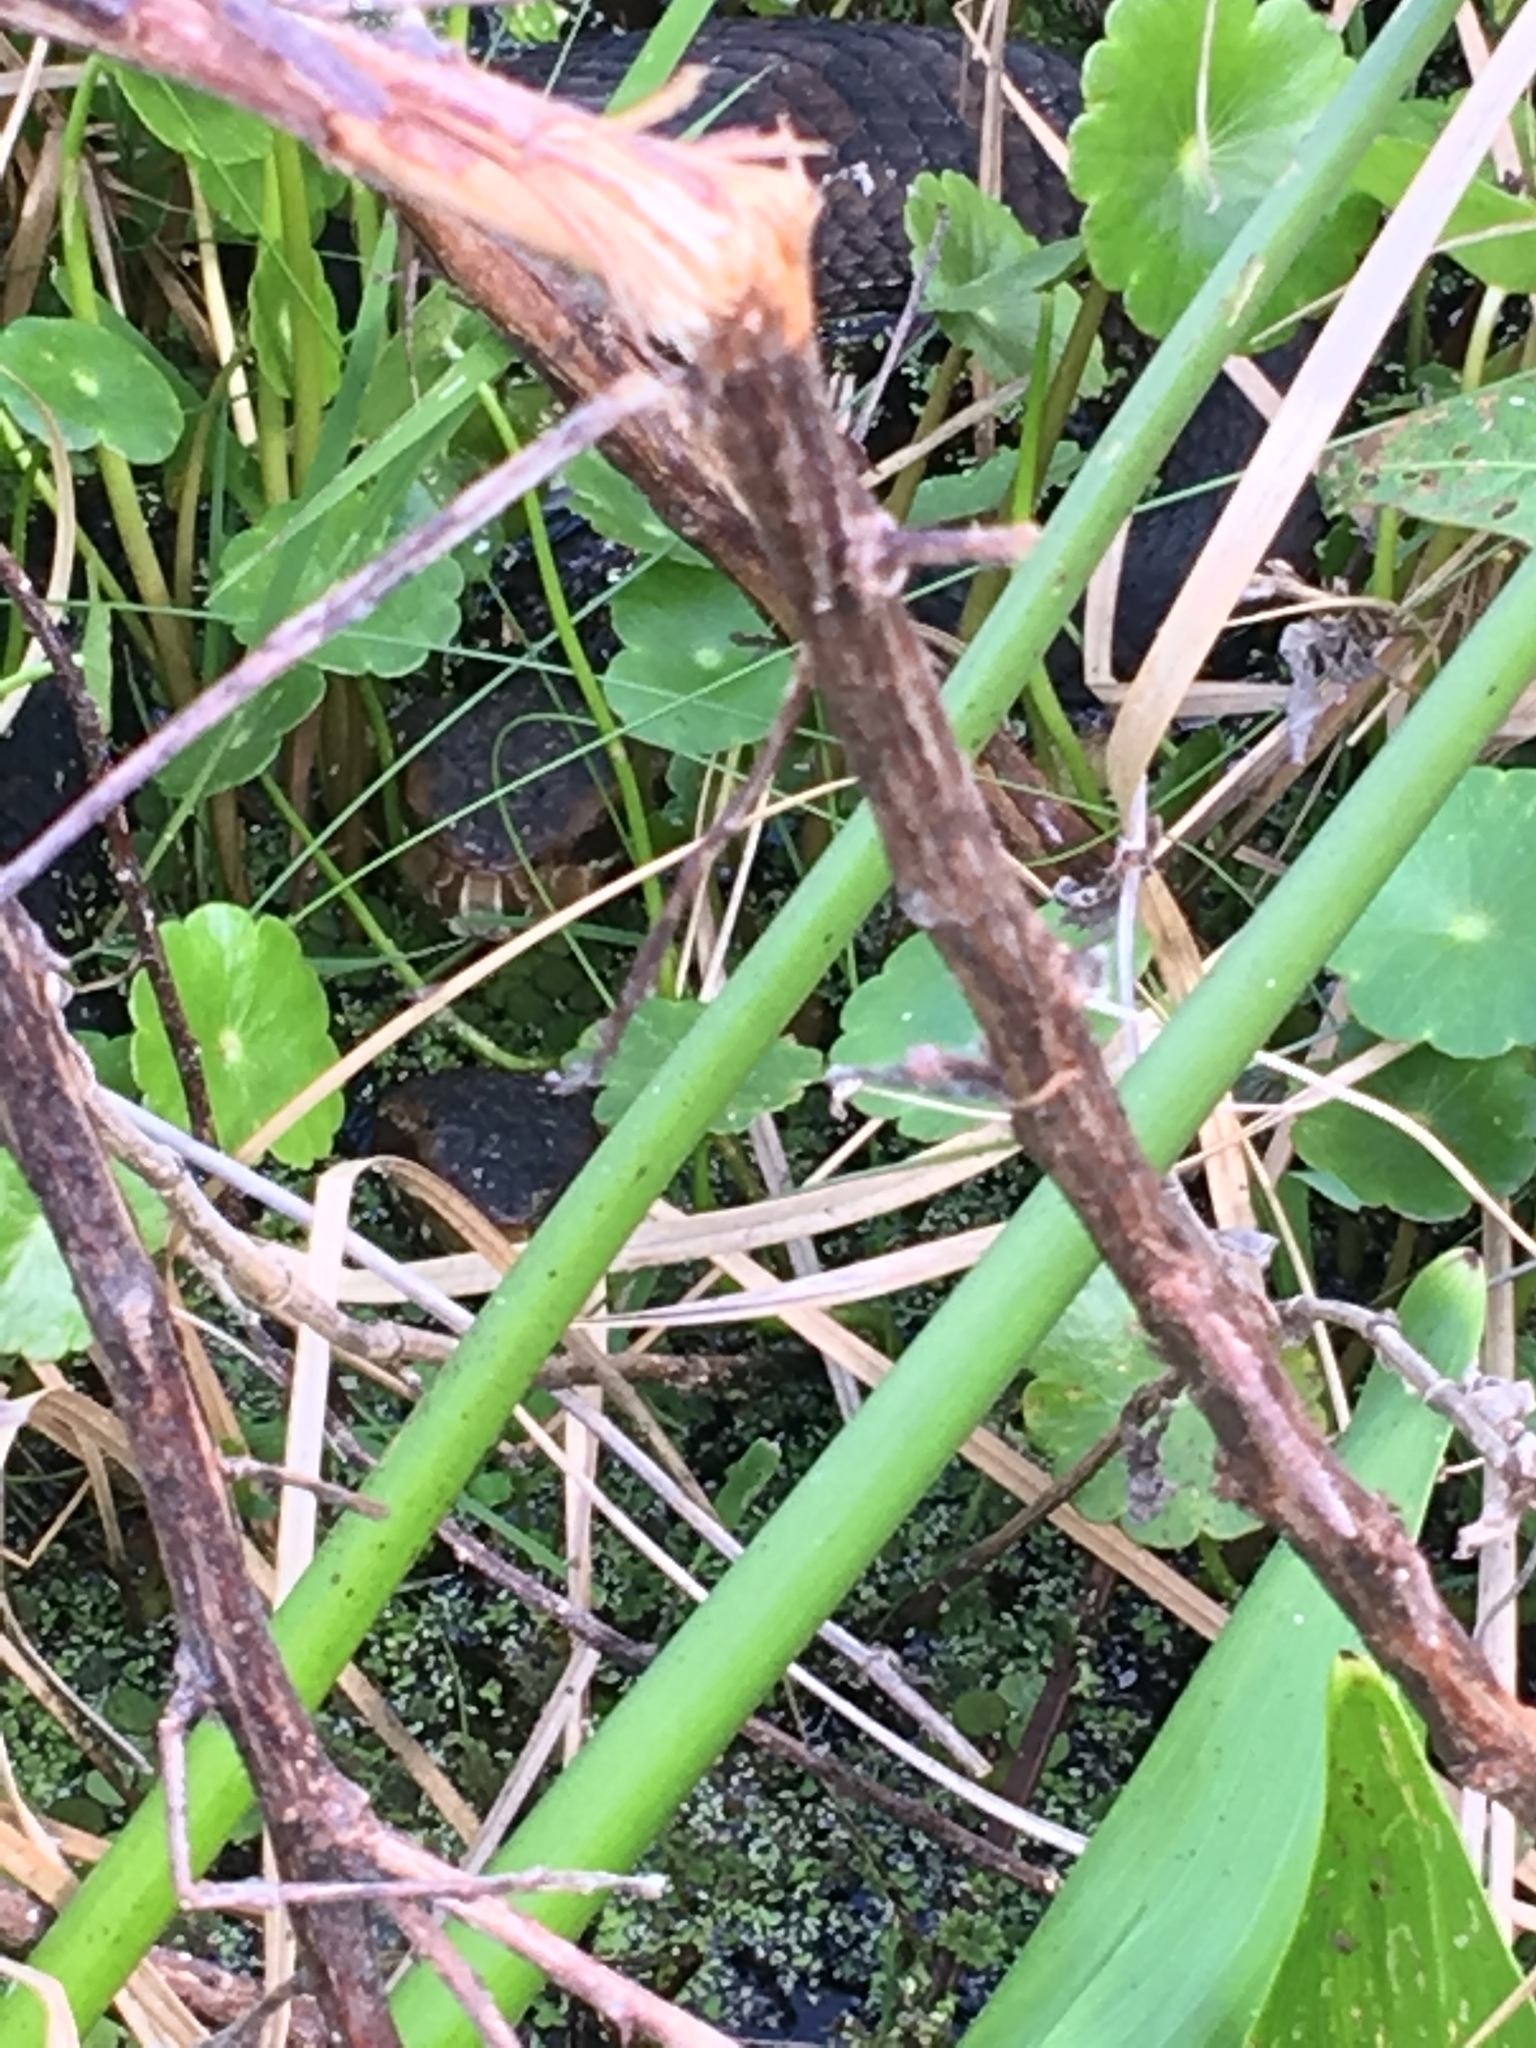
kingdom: Animalia
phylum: Chordata
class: Squamata
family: Viperidae
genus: Agkistrodon
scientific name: Agkistrodon conanti
